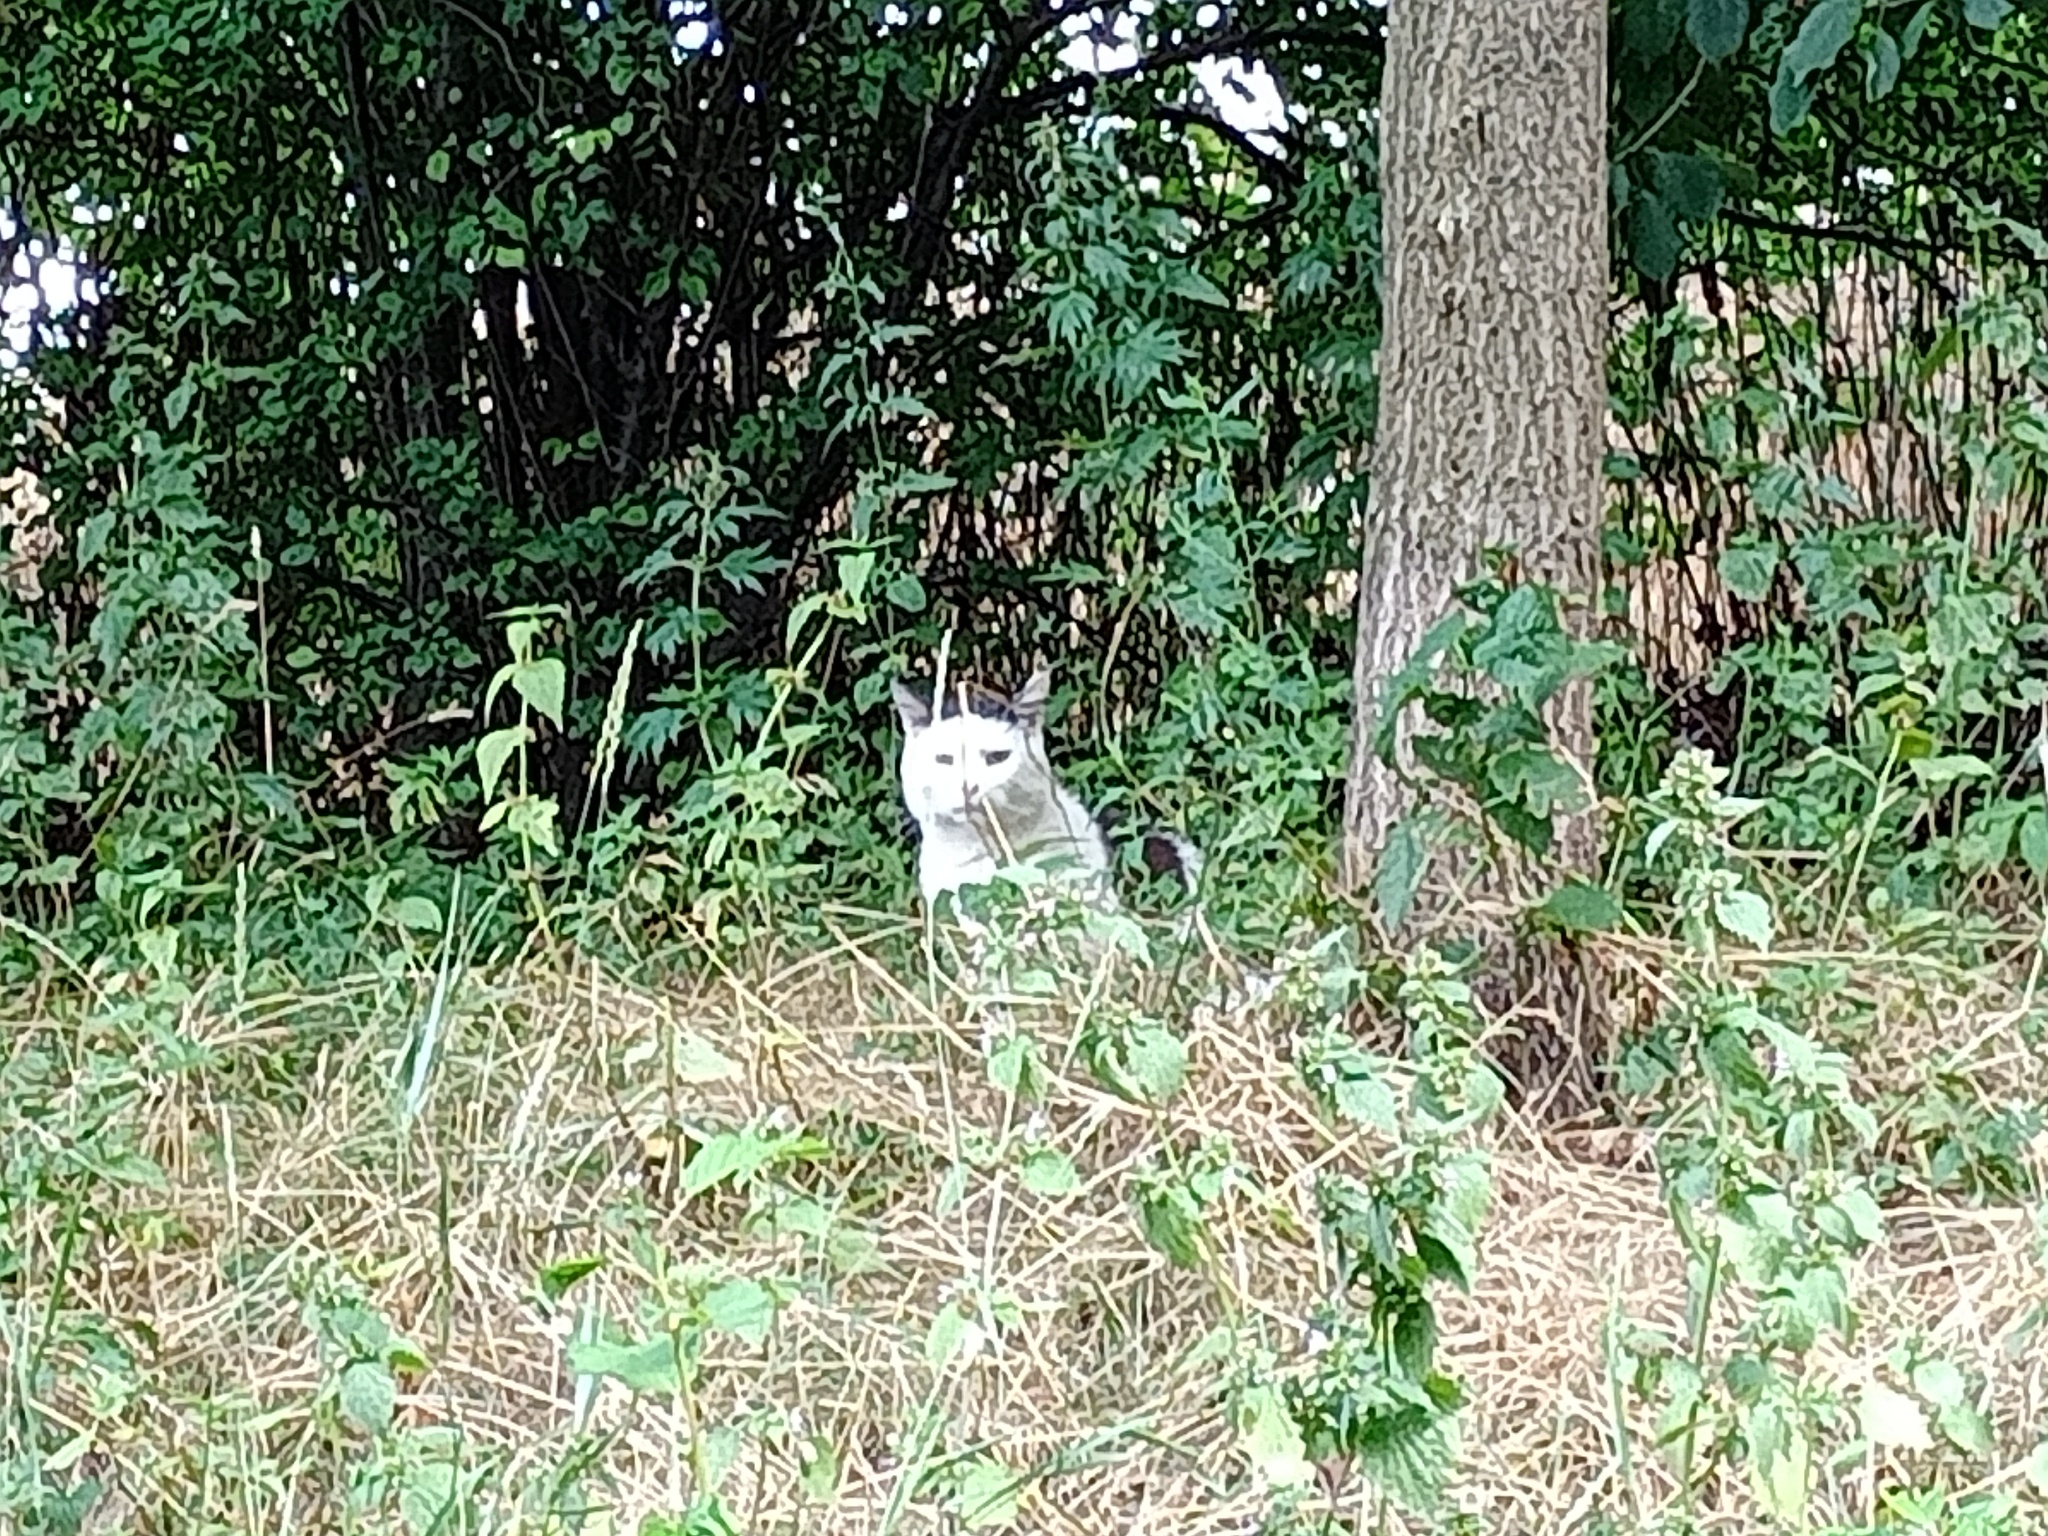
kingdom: Animalia
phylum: Chordata
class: Mammalia
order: Carnivora
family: Felidae
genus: Felis
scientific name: Felis catus
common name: Domestic cat
